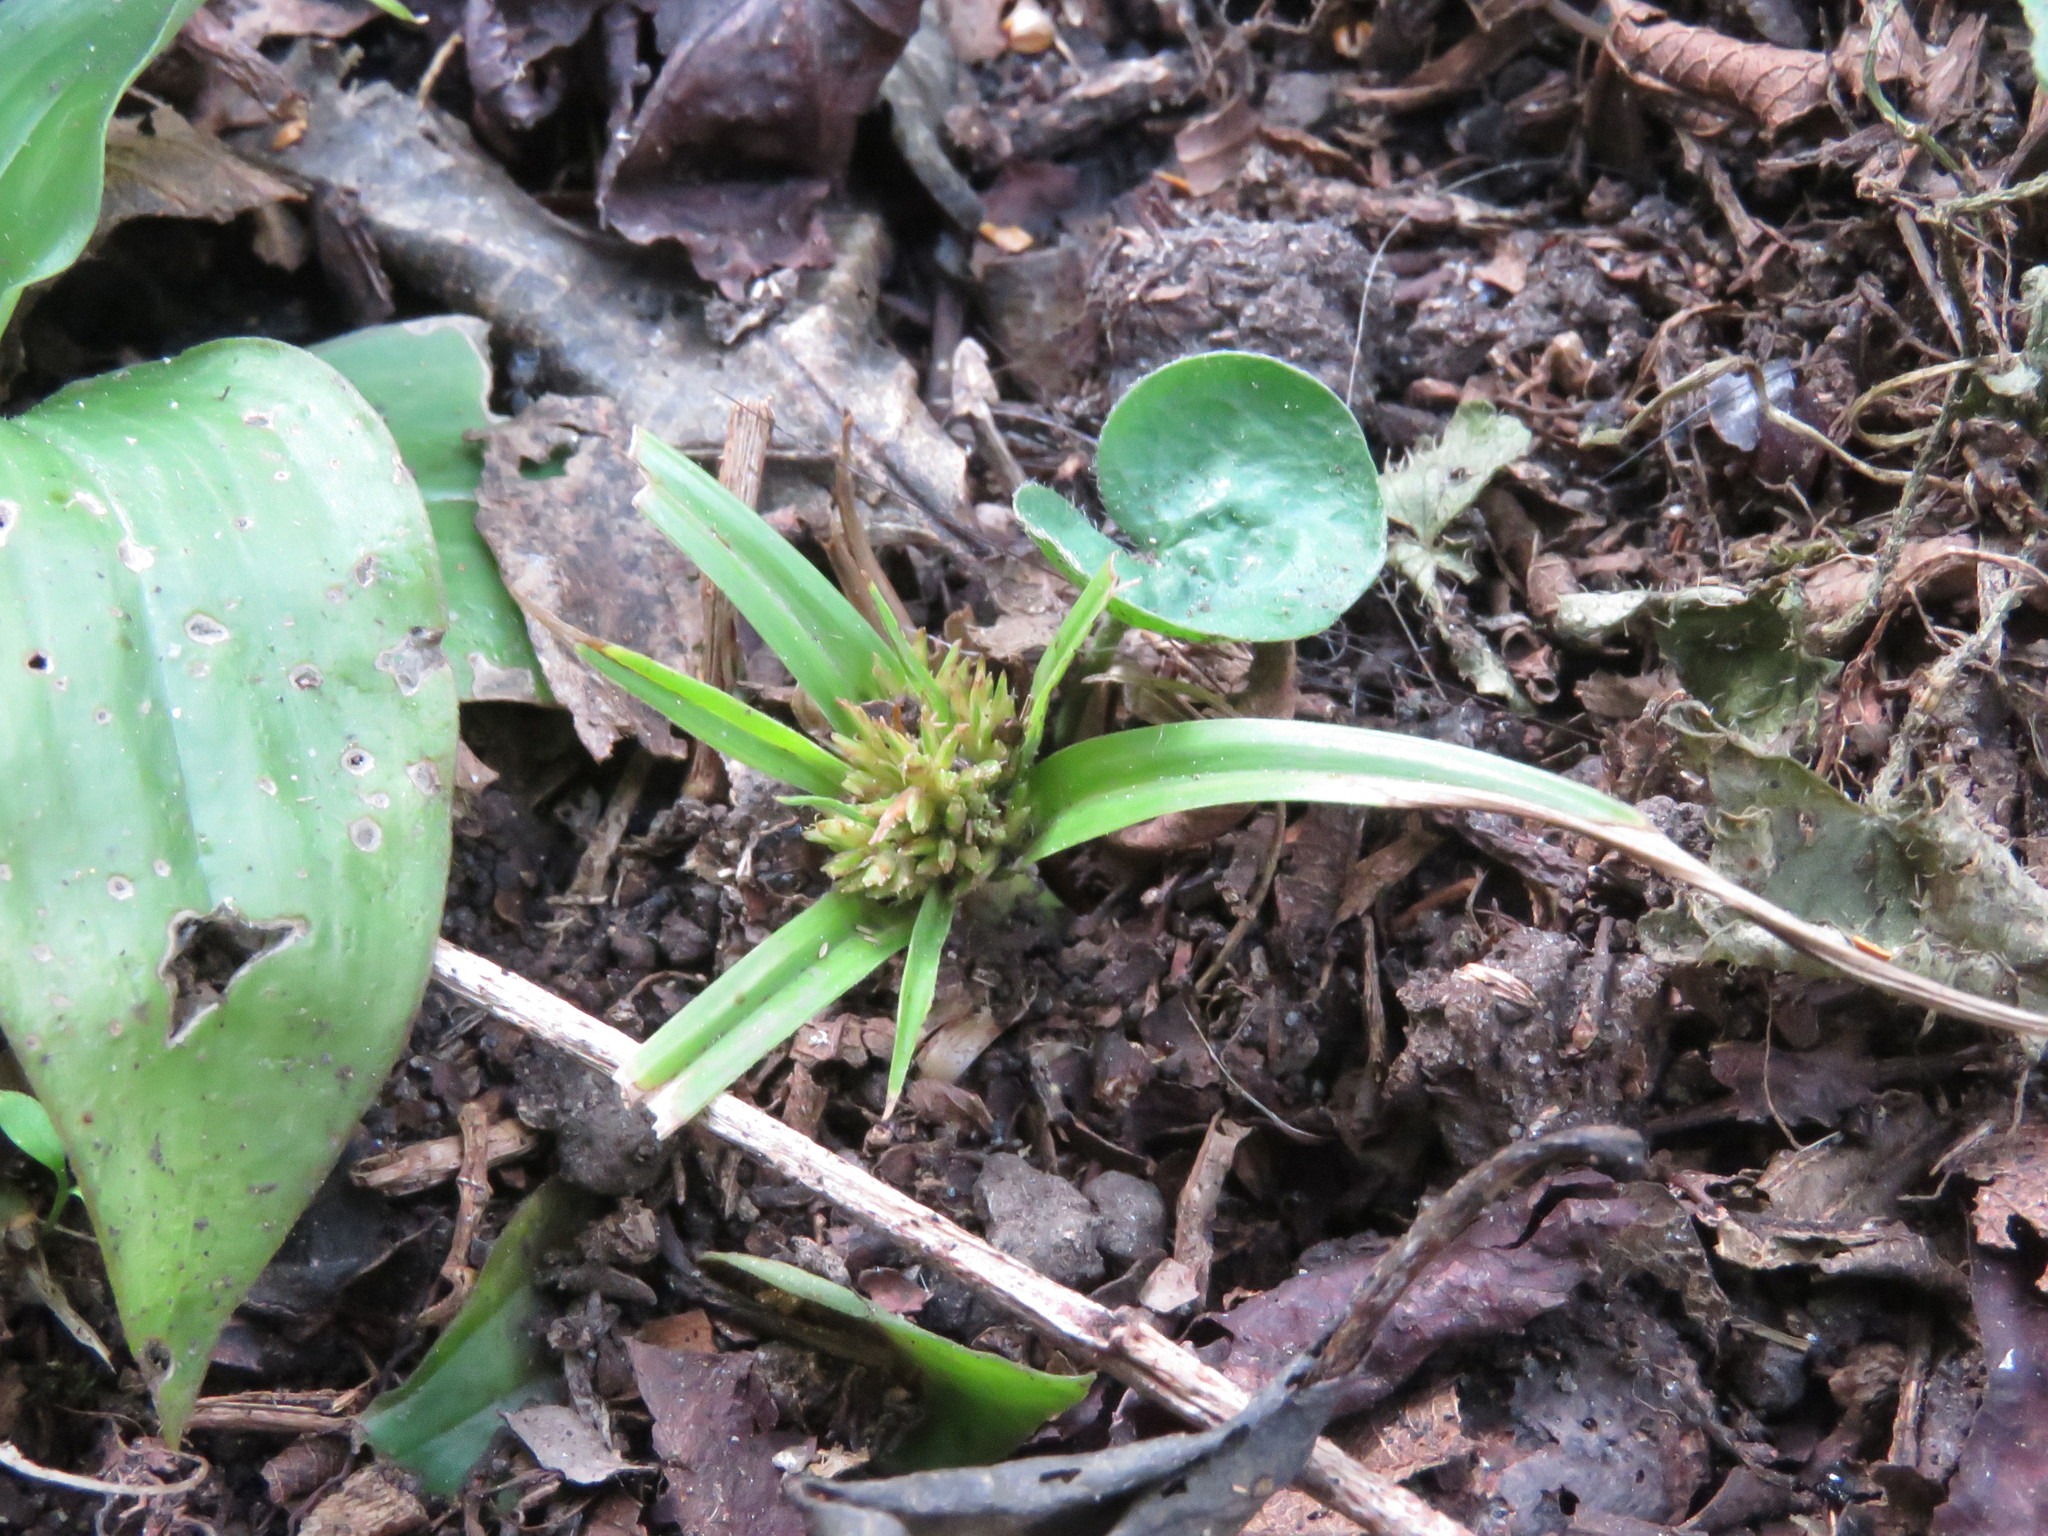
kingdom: Plantae
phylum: Tracheophyta
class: Liliopsida
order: Poales
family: Cyperaceae
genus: Cyperus
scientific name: Cyperus paramoensis
